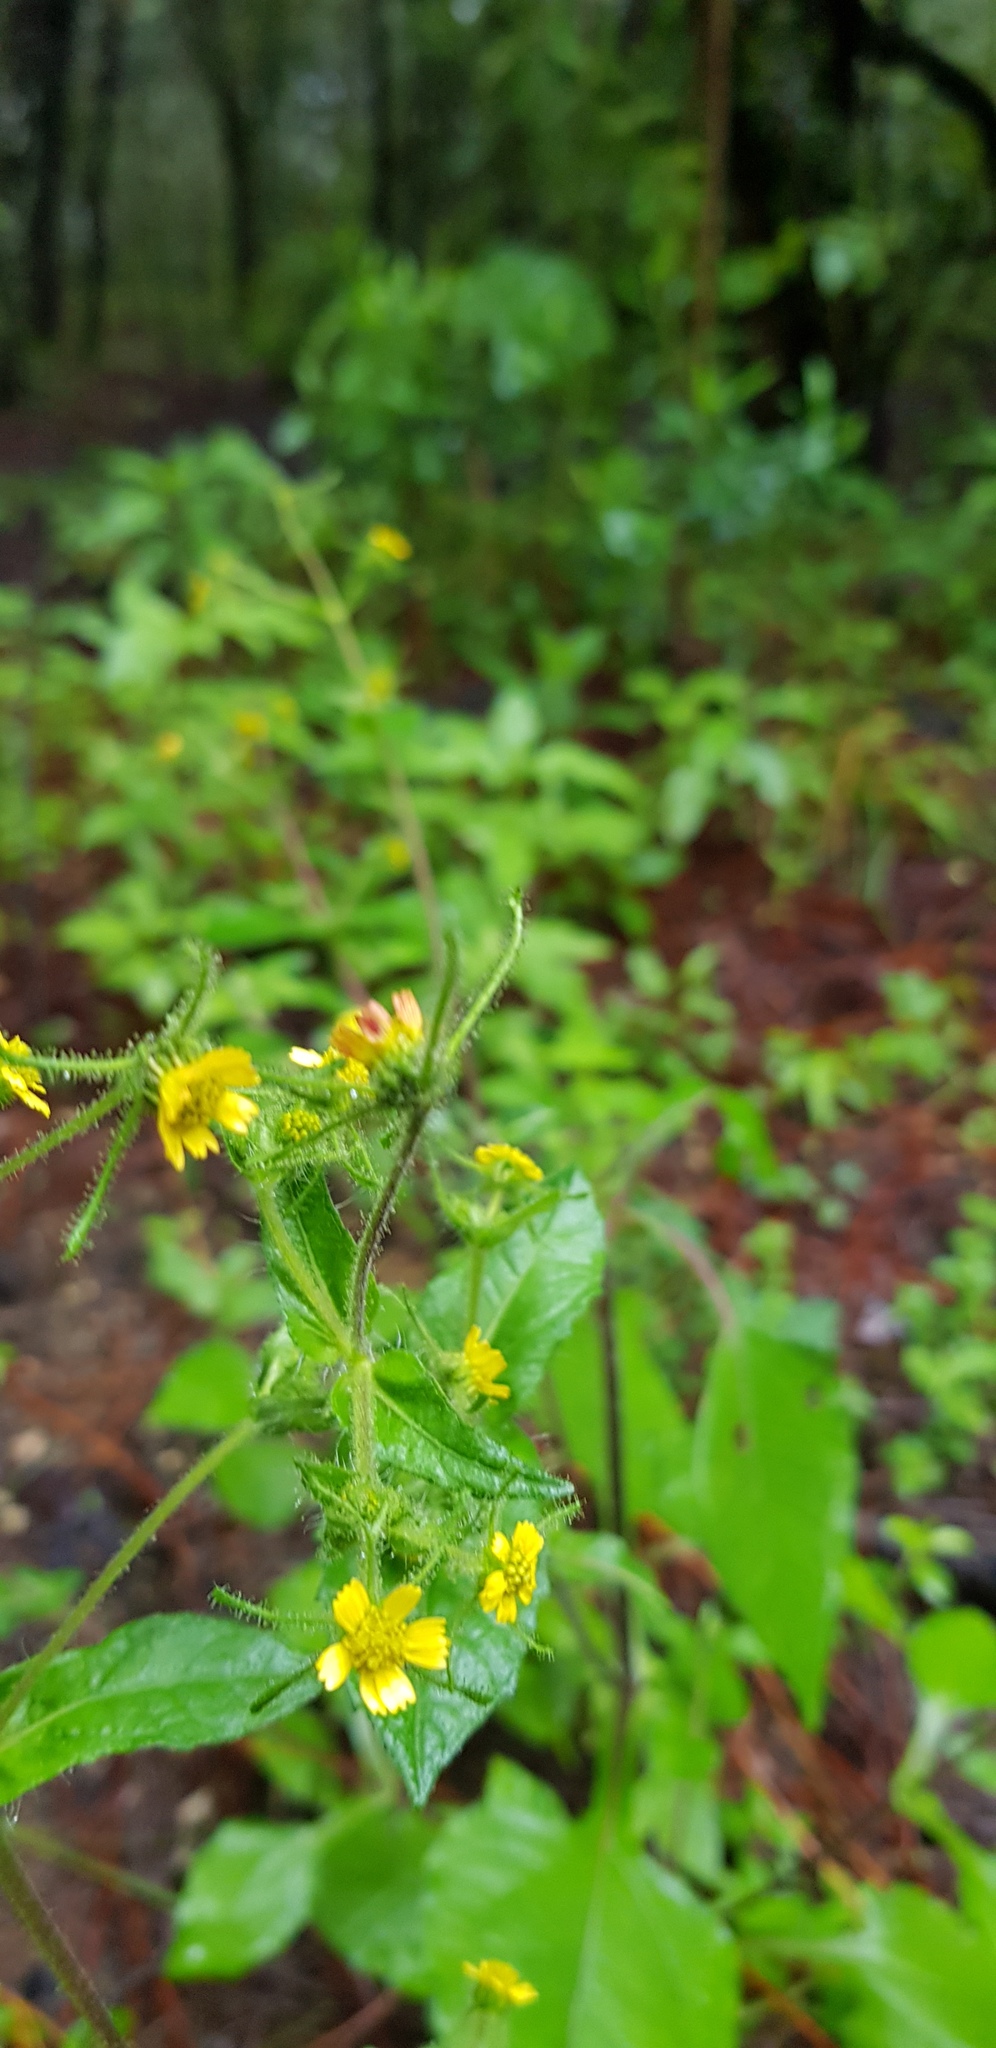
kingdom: Plantae
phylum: Tracheophyta
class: Magnoliopsida
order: Asterales
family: Asteraceae
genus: Sigesbeckia
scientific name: Sigesbeckia jorullensis
